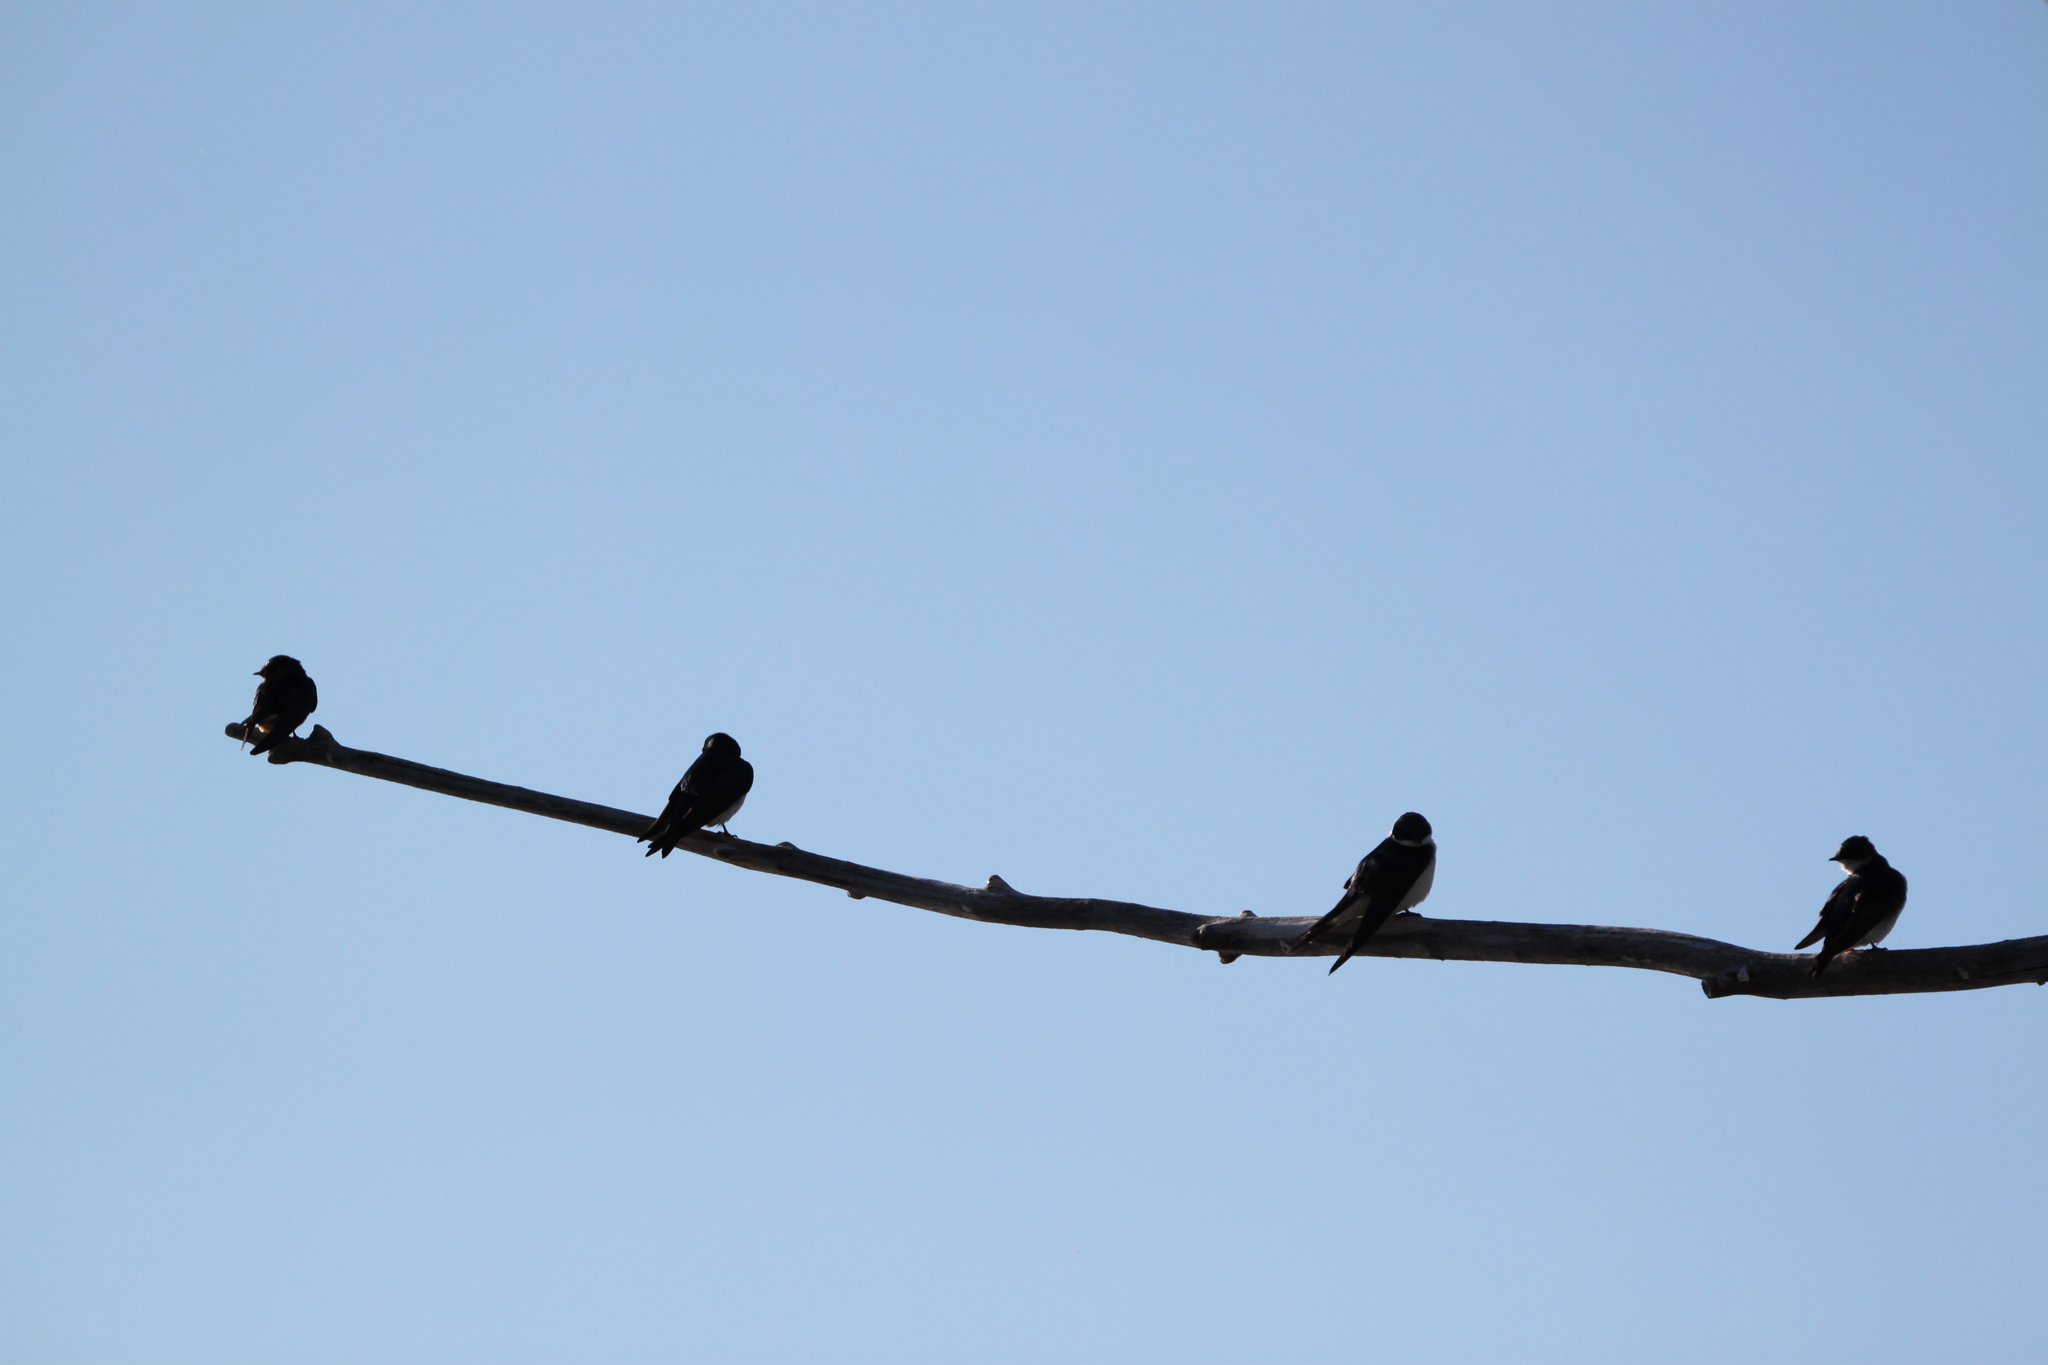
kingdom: Animalia
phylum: Chordata
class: Aves
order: Passeriformes
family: Hirundinidae
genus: Tachycineta
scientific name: Tachycineta bicolor
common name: Tree swallow
